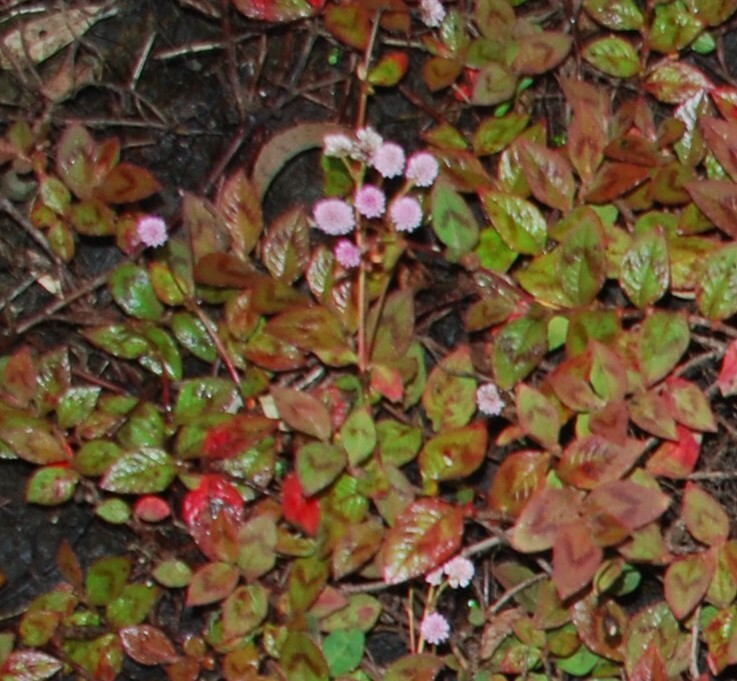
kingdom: Plantae
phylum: Tracheophyta
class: Magnoliopsida
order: Caryophyllales
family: Polygonaceae
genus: Persicaria
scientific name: Persicaria capitata
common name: Pinkhead smartweed
